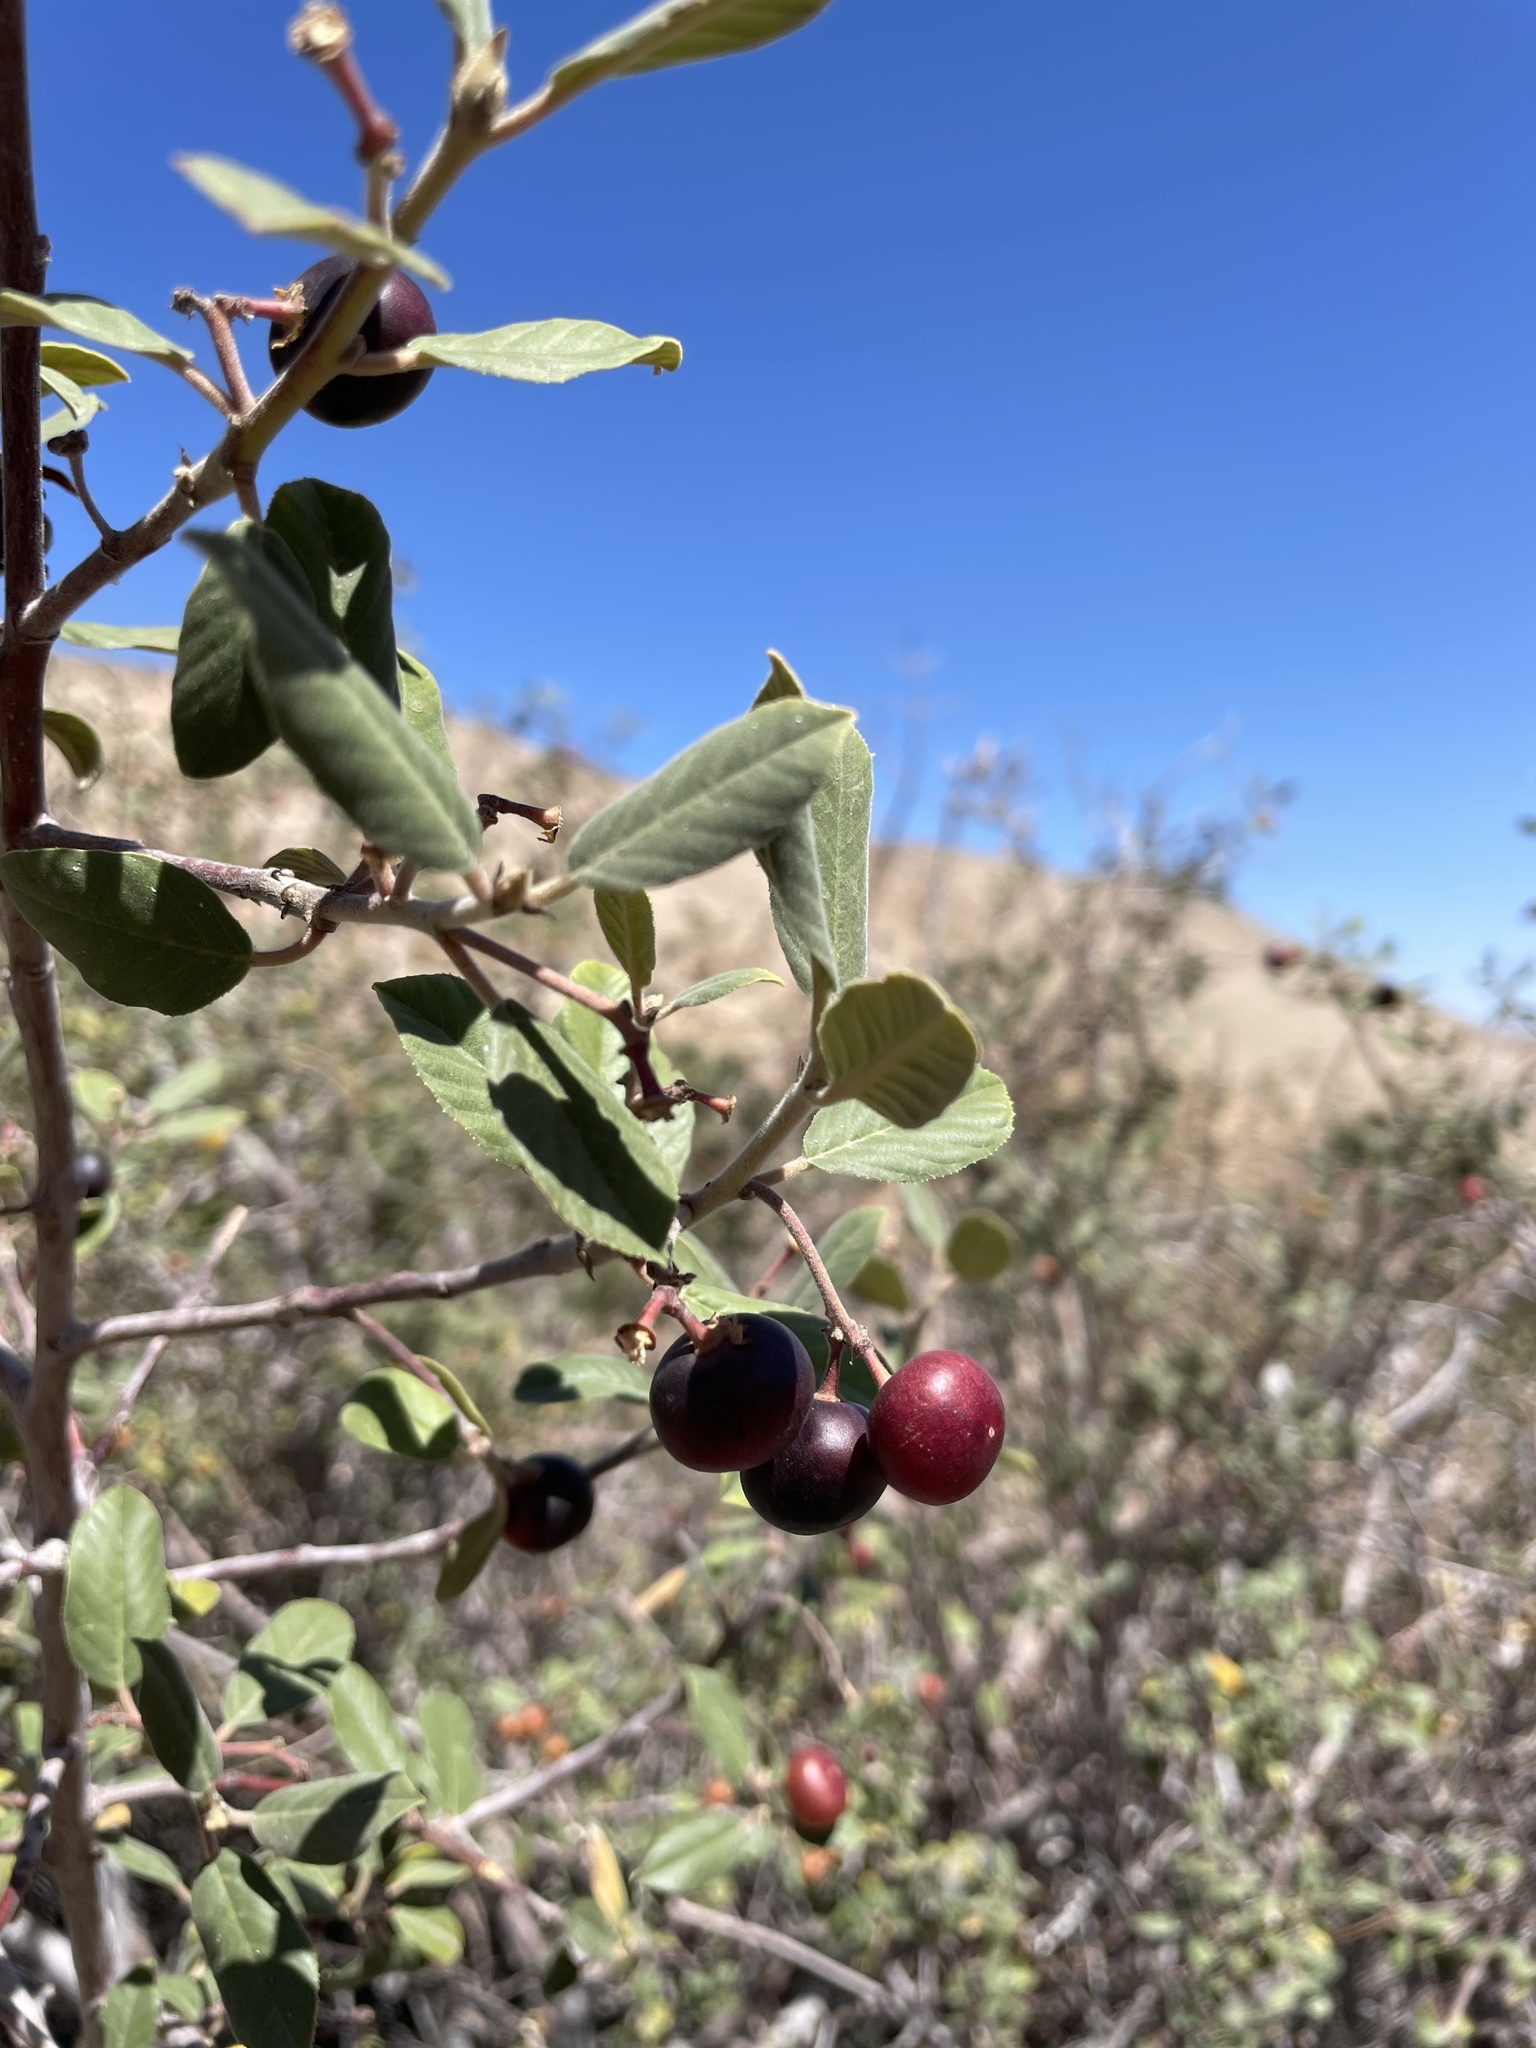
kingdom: Plantae
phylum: Tracheophyta
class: Magnoliopsida
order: Rosales
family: Rhamnaceae
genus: Frangula
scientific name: Frangula californica
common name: California buckthorn
